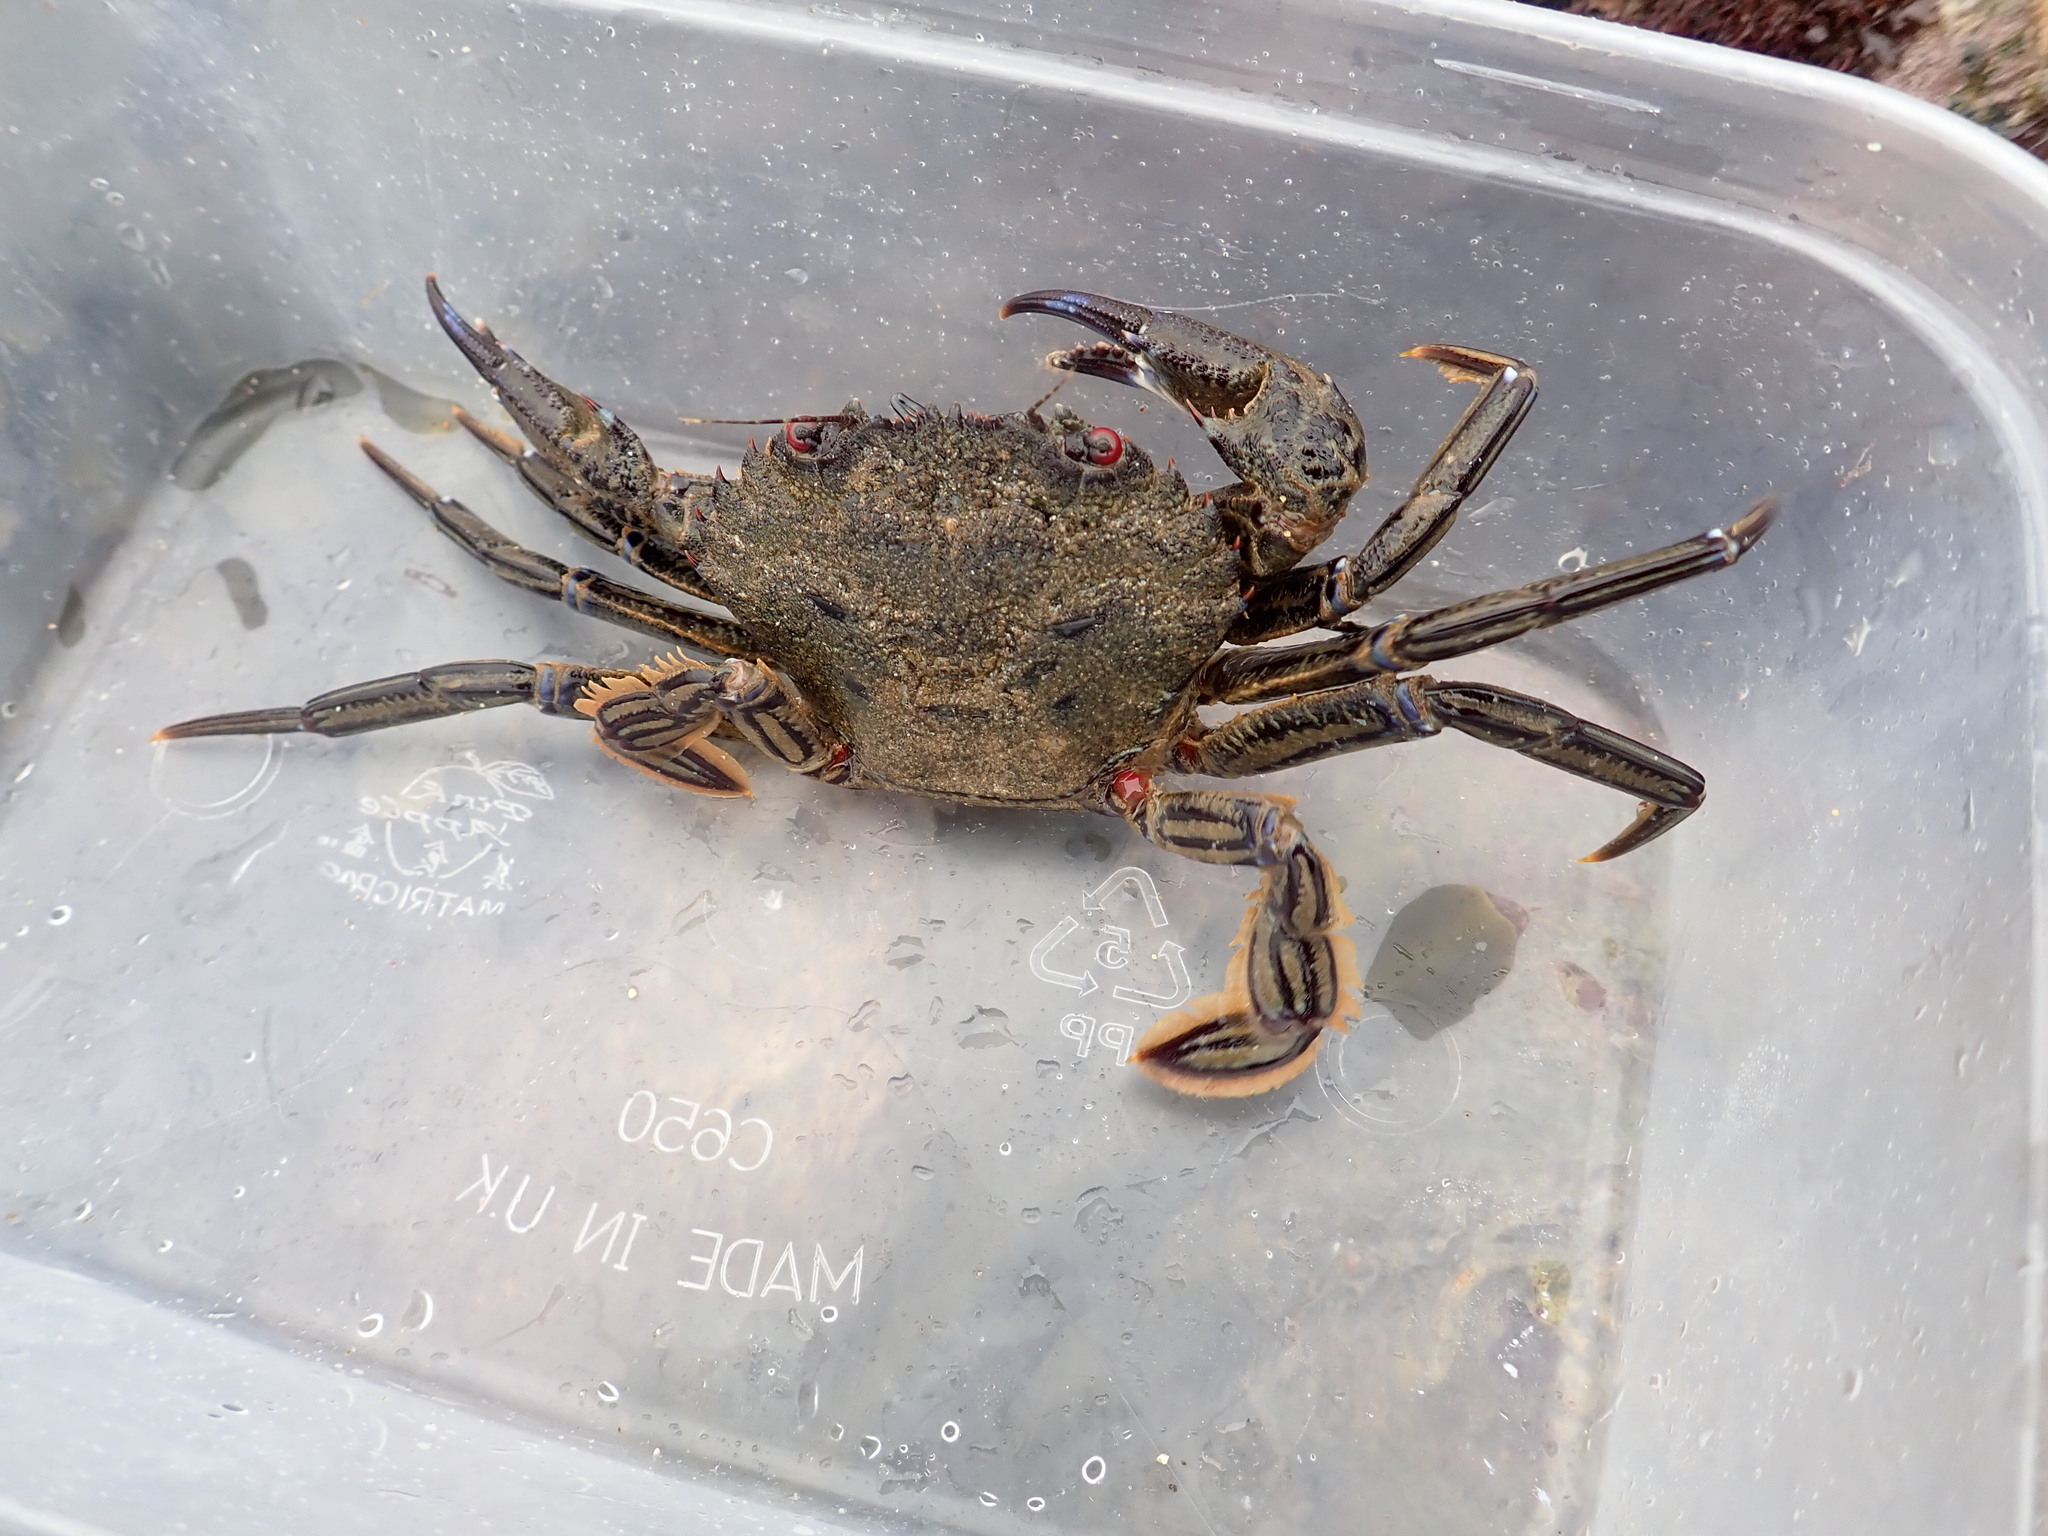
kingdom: Animalia
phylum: Arthropoda
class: Malacostraca
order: Decapoda
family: Polybiidae
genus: Necora
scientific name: Necora puber
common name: Velvet swimming crab
